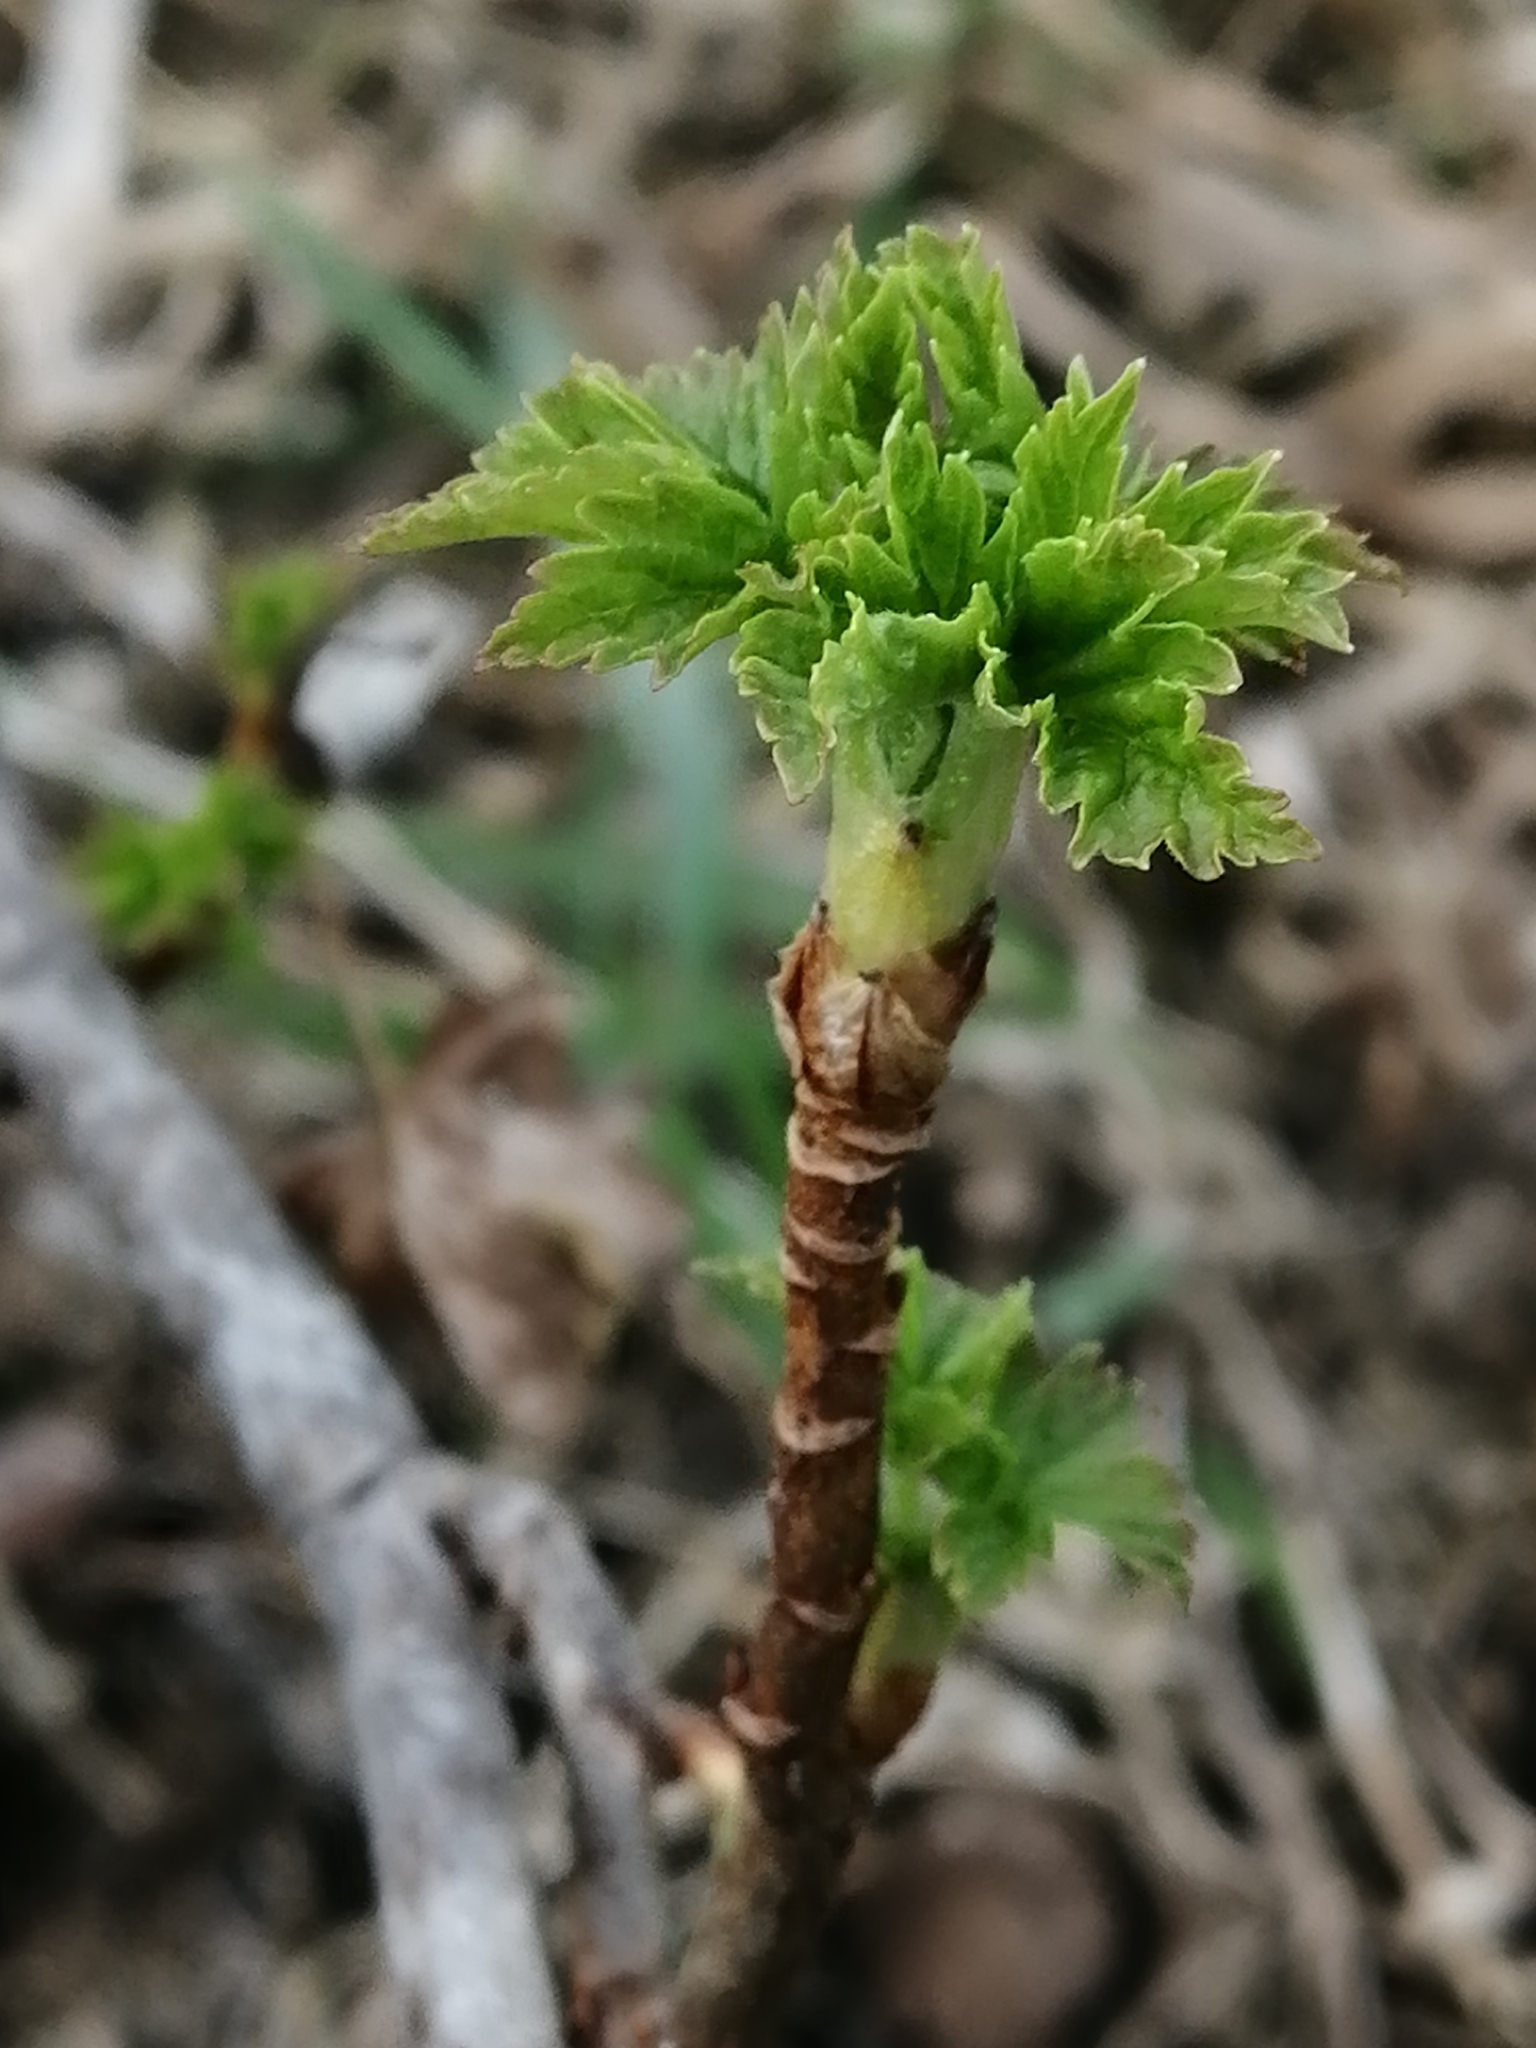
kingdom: Plantae
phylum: Tracheophyta
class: Magnoliopsida
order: Saxifragales
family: Grossulariaceae
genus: Ribes
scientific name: Ribes nigrum
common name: Black currant
